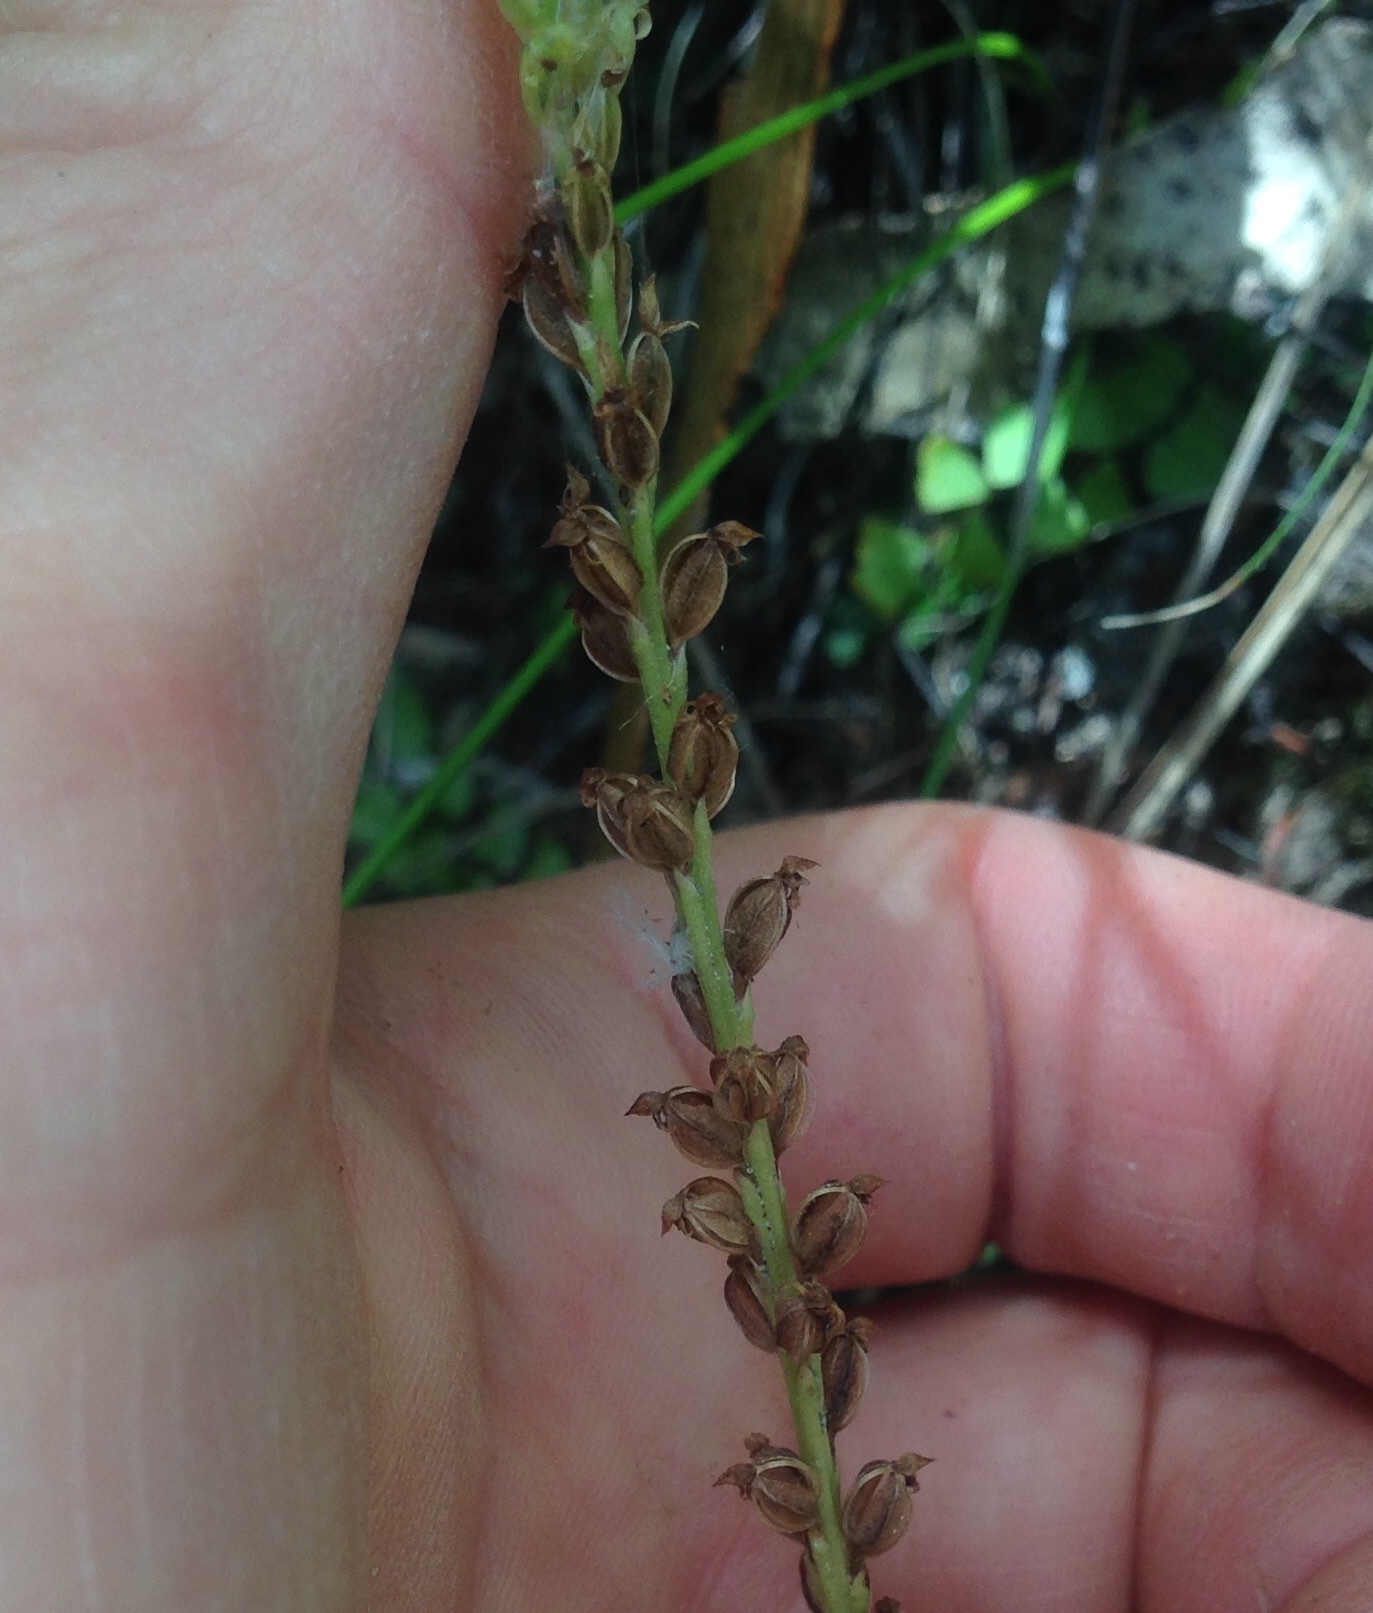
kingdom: Plantae
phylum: Tracheophyta
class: Liliopsida
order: Asparagales
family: Orchidaceae
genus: Microtis
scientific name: Microtis unifolia
